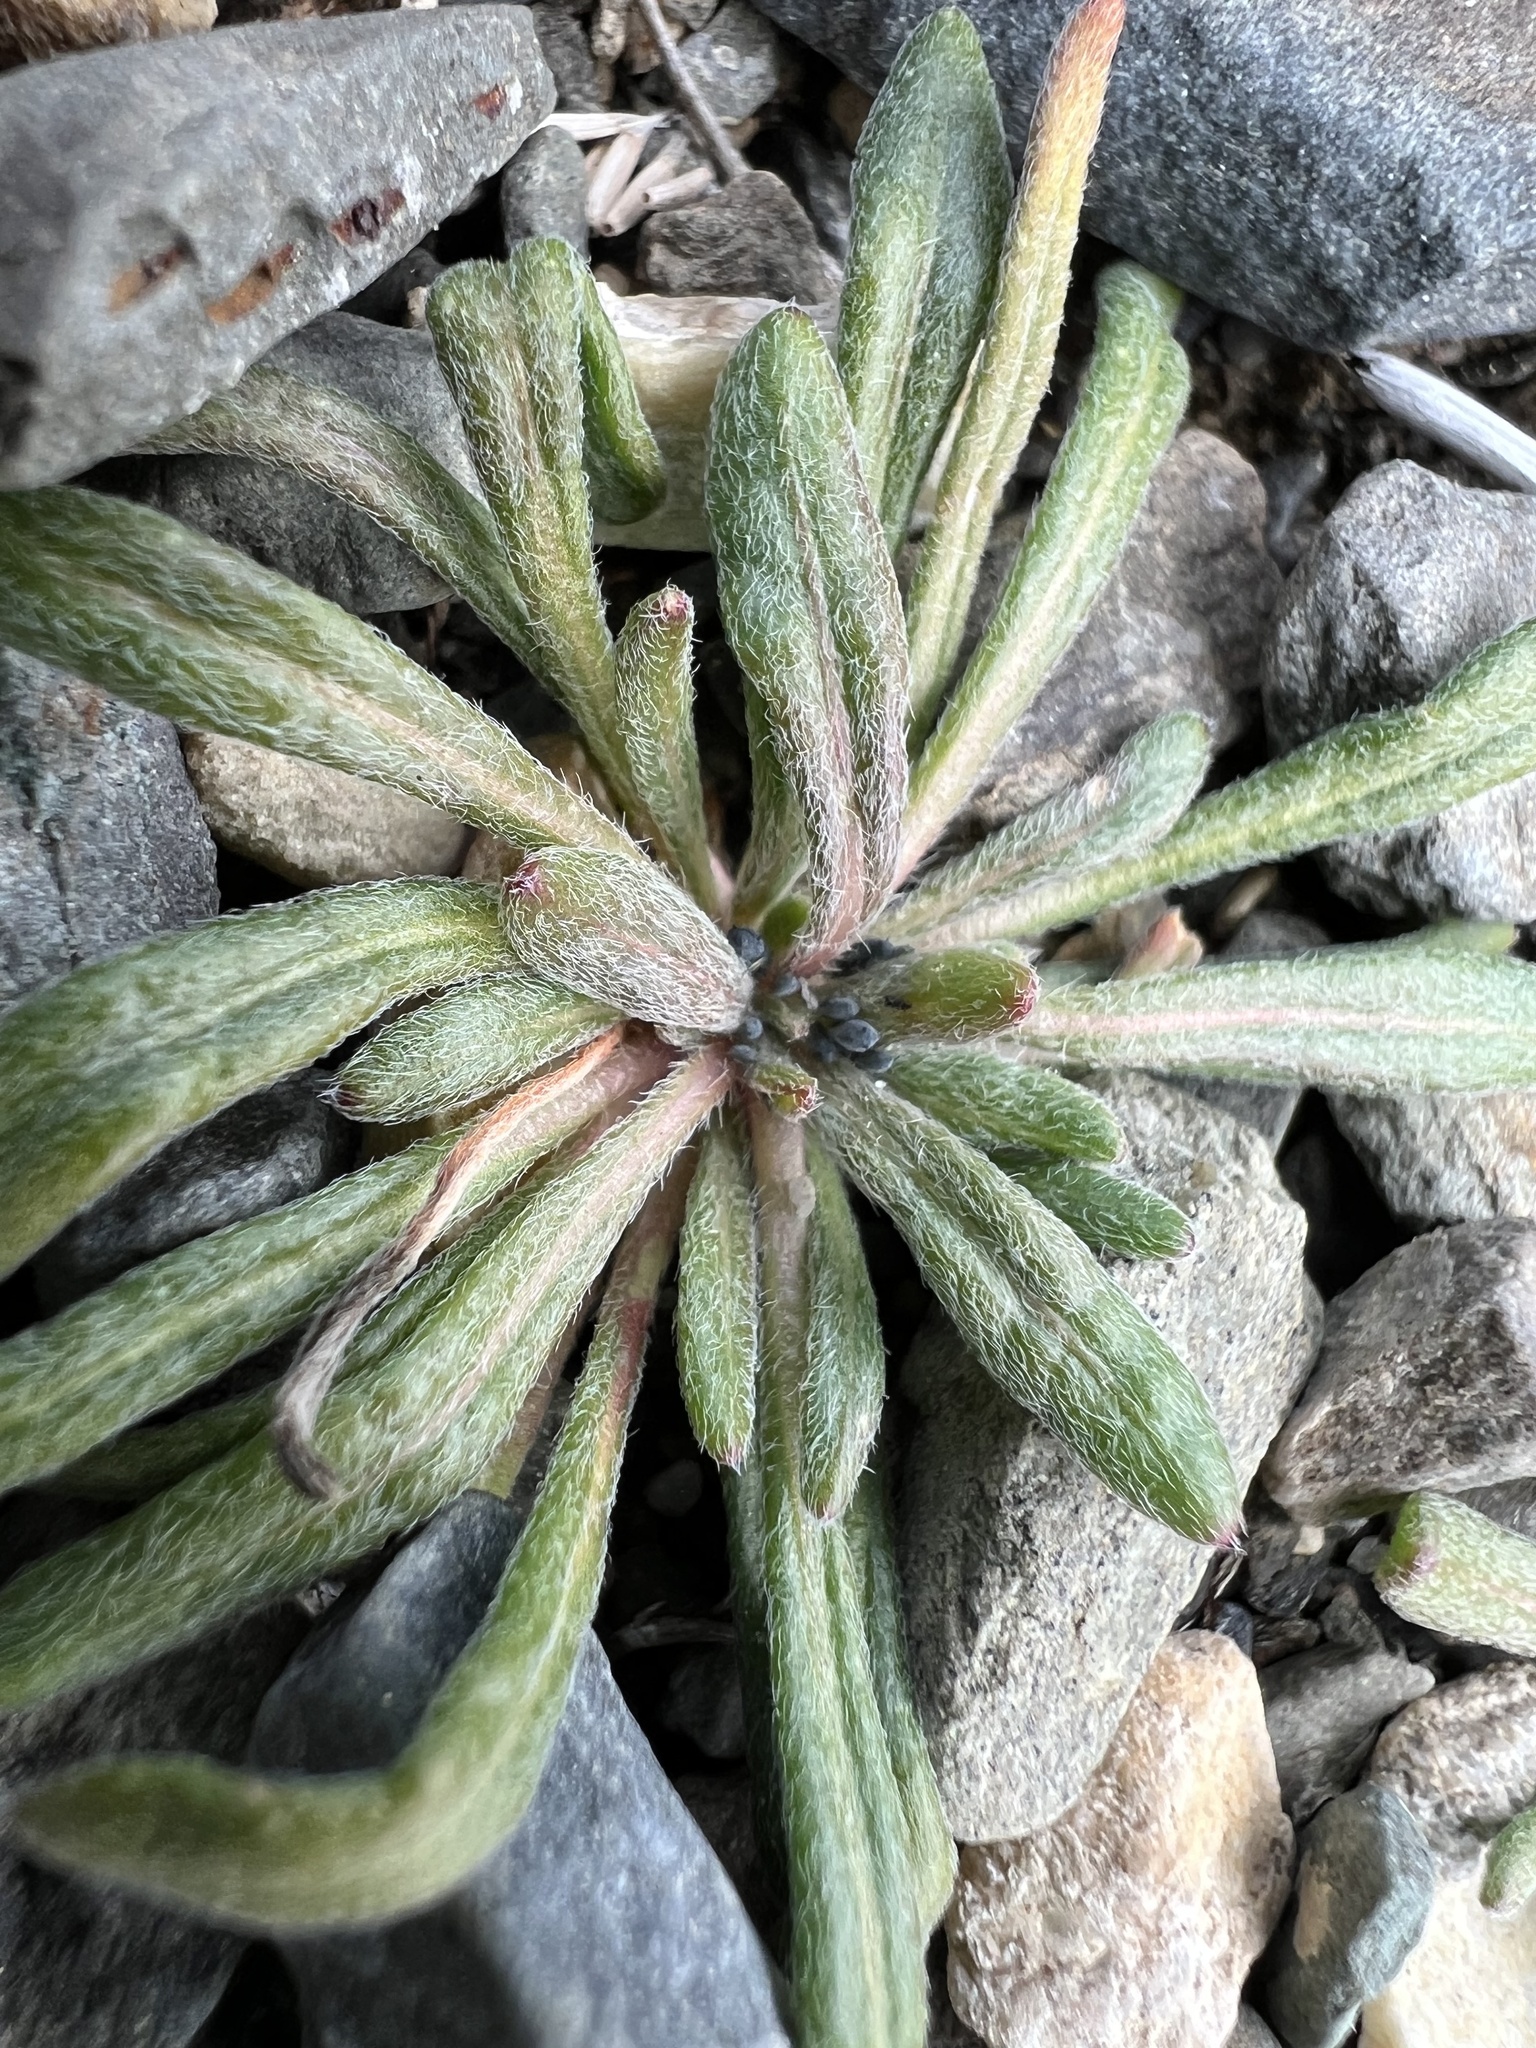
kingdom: Plantae
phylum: Tracheophyta
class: Magnoliopsida
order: Caryophyllales
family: Polygonaceae
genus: Chorizanthe
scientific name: Chorizanthe brevicornu
